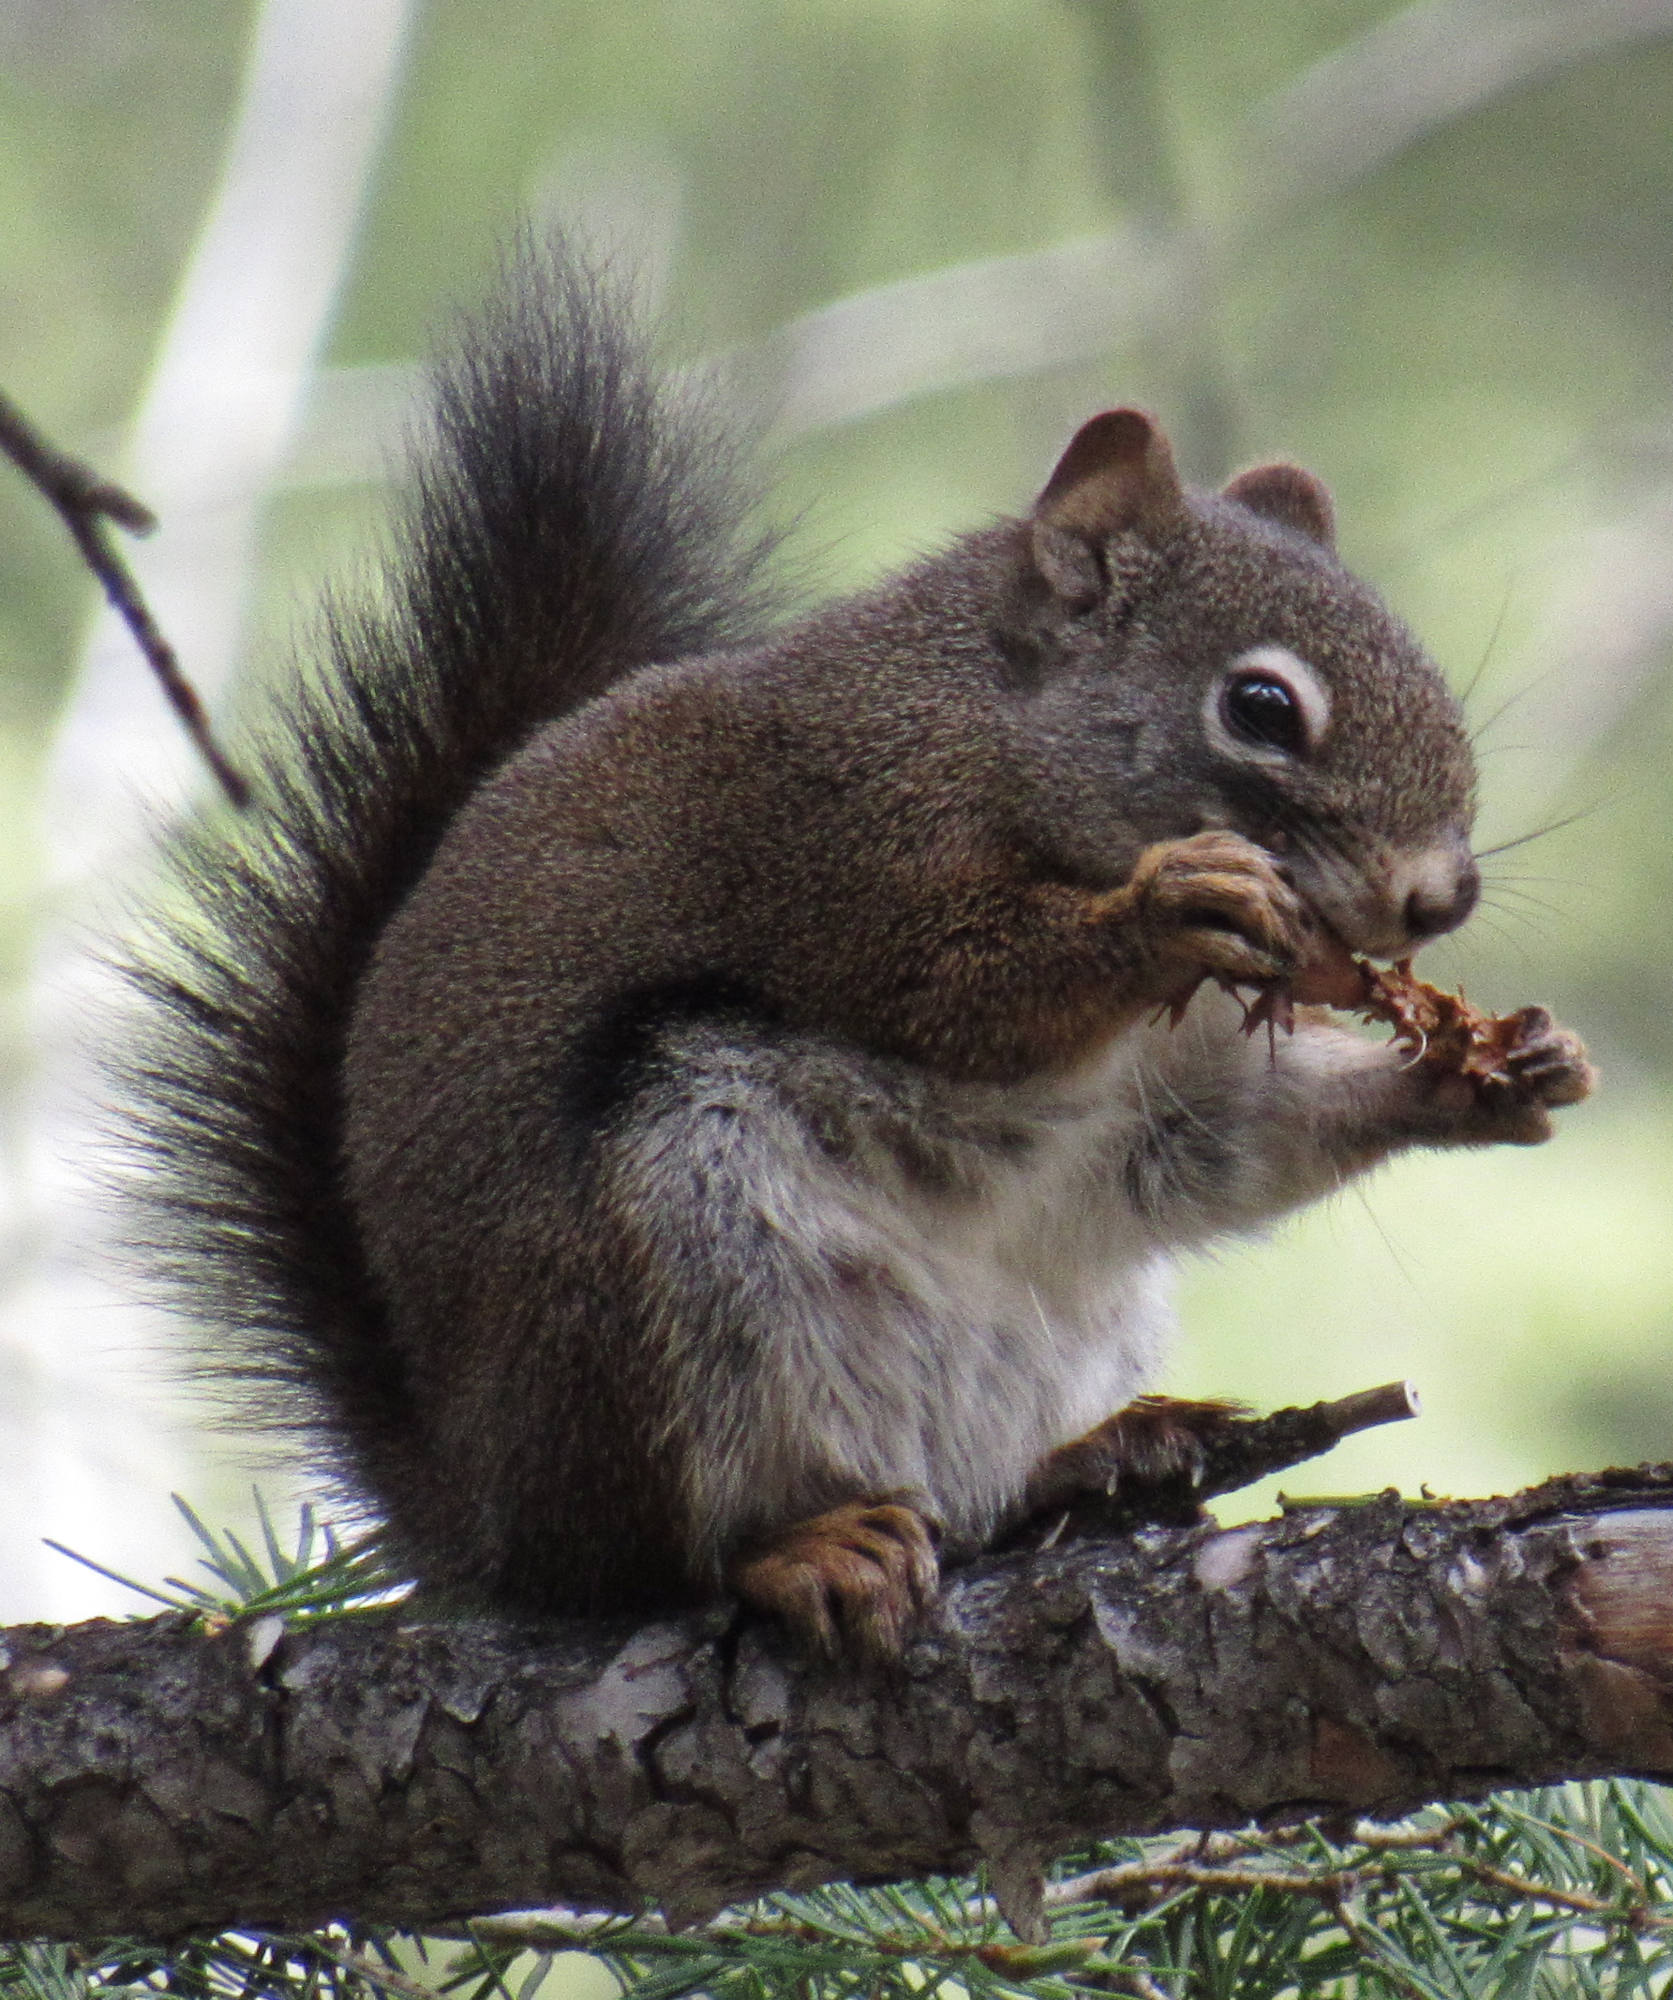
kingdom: Animalia
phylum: Chordata
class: Mammalia
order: Rodentia
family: Sciuridae
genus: Tamiasciurus
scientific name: Tamiasciurus hudsonicus
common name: Red squirrel
